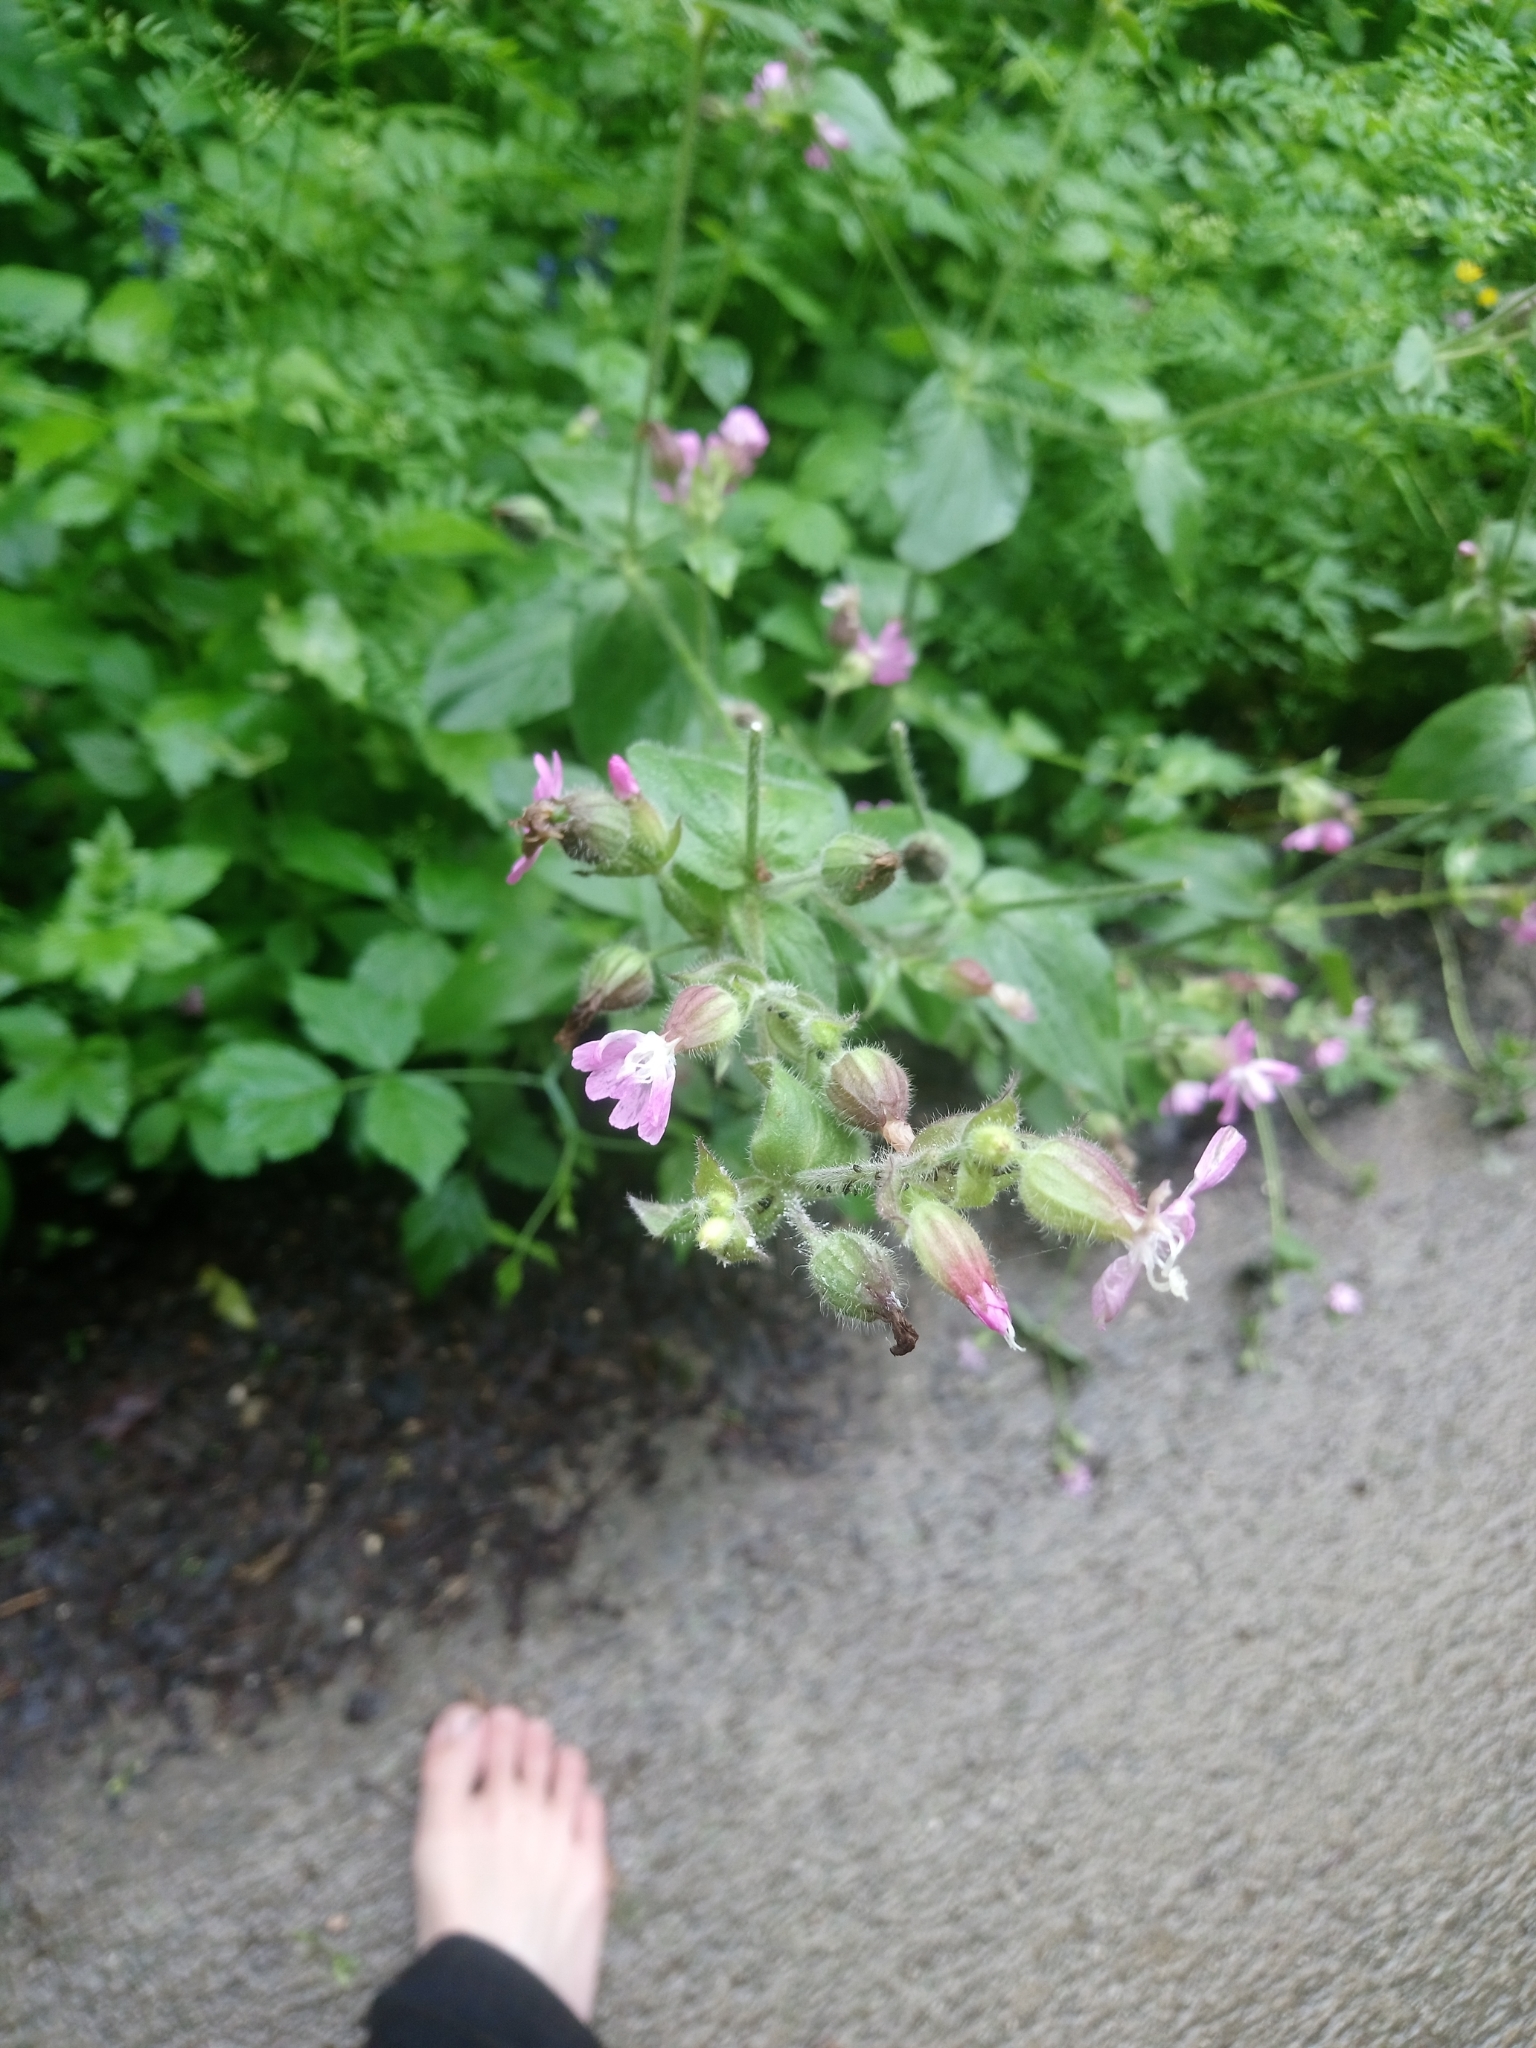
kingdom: Plantae
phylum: Tracheophyta
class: Magnoliopsida
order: Caryophyllales
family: Caryophyllaceae
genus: Silene
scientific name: Silene dioica
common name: Red campion
